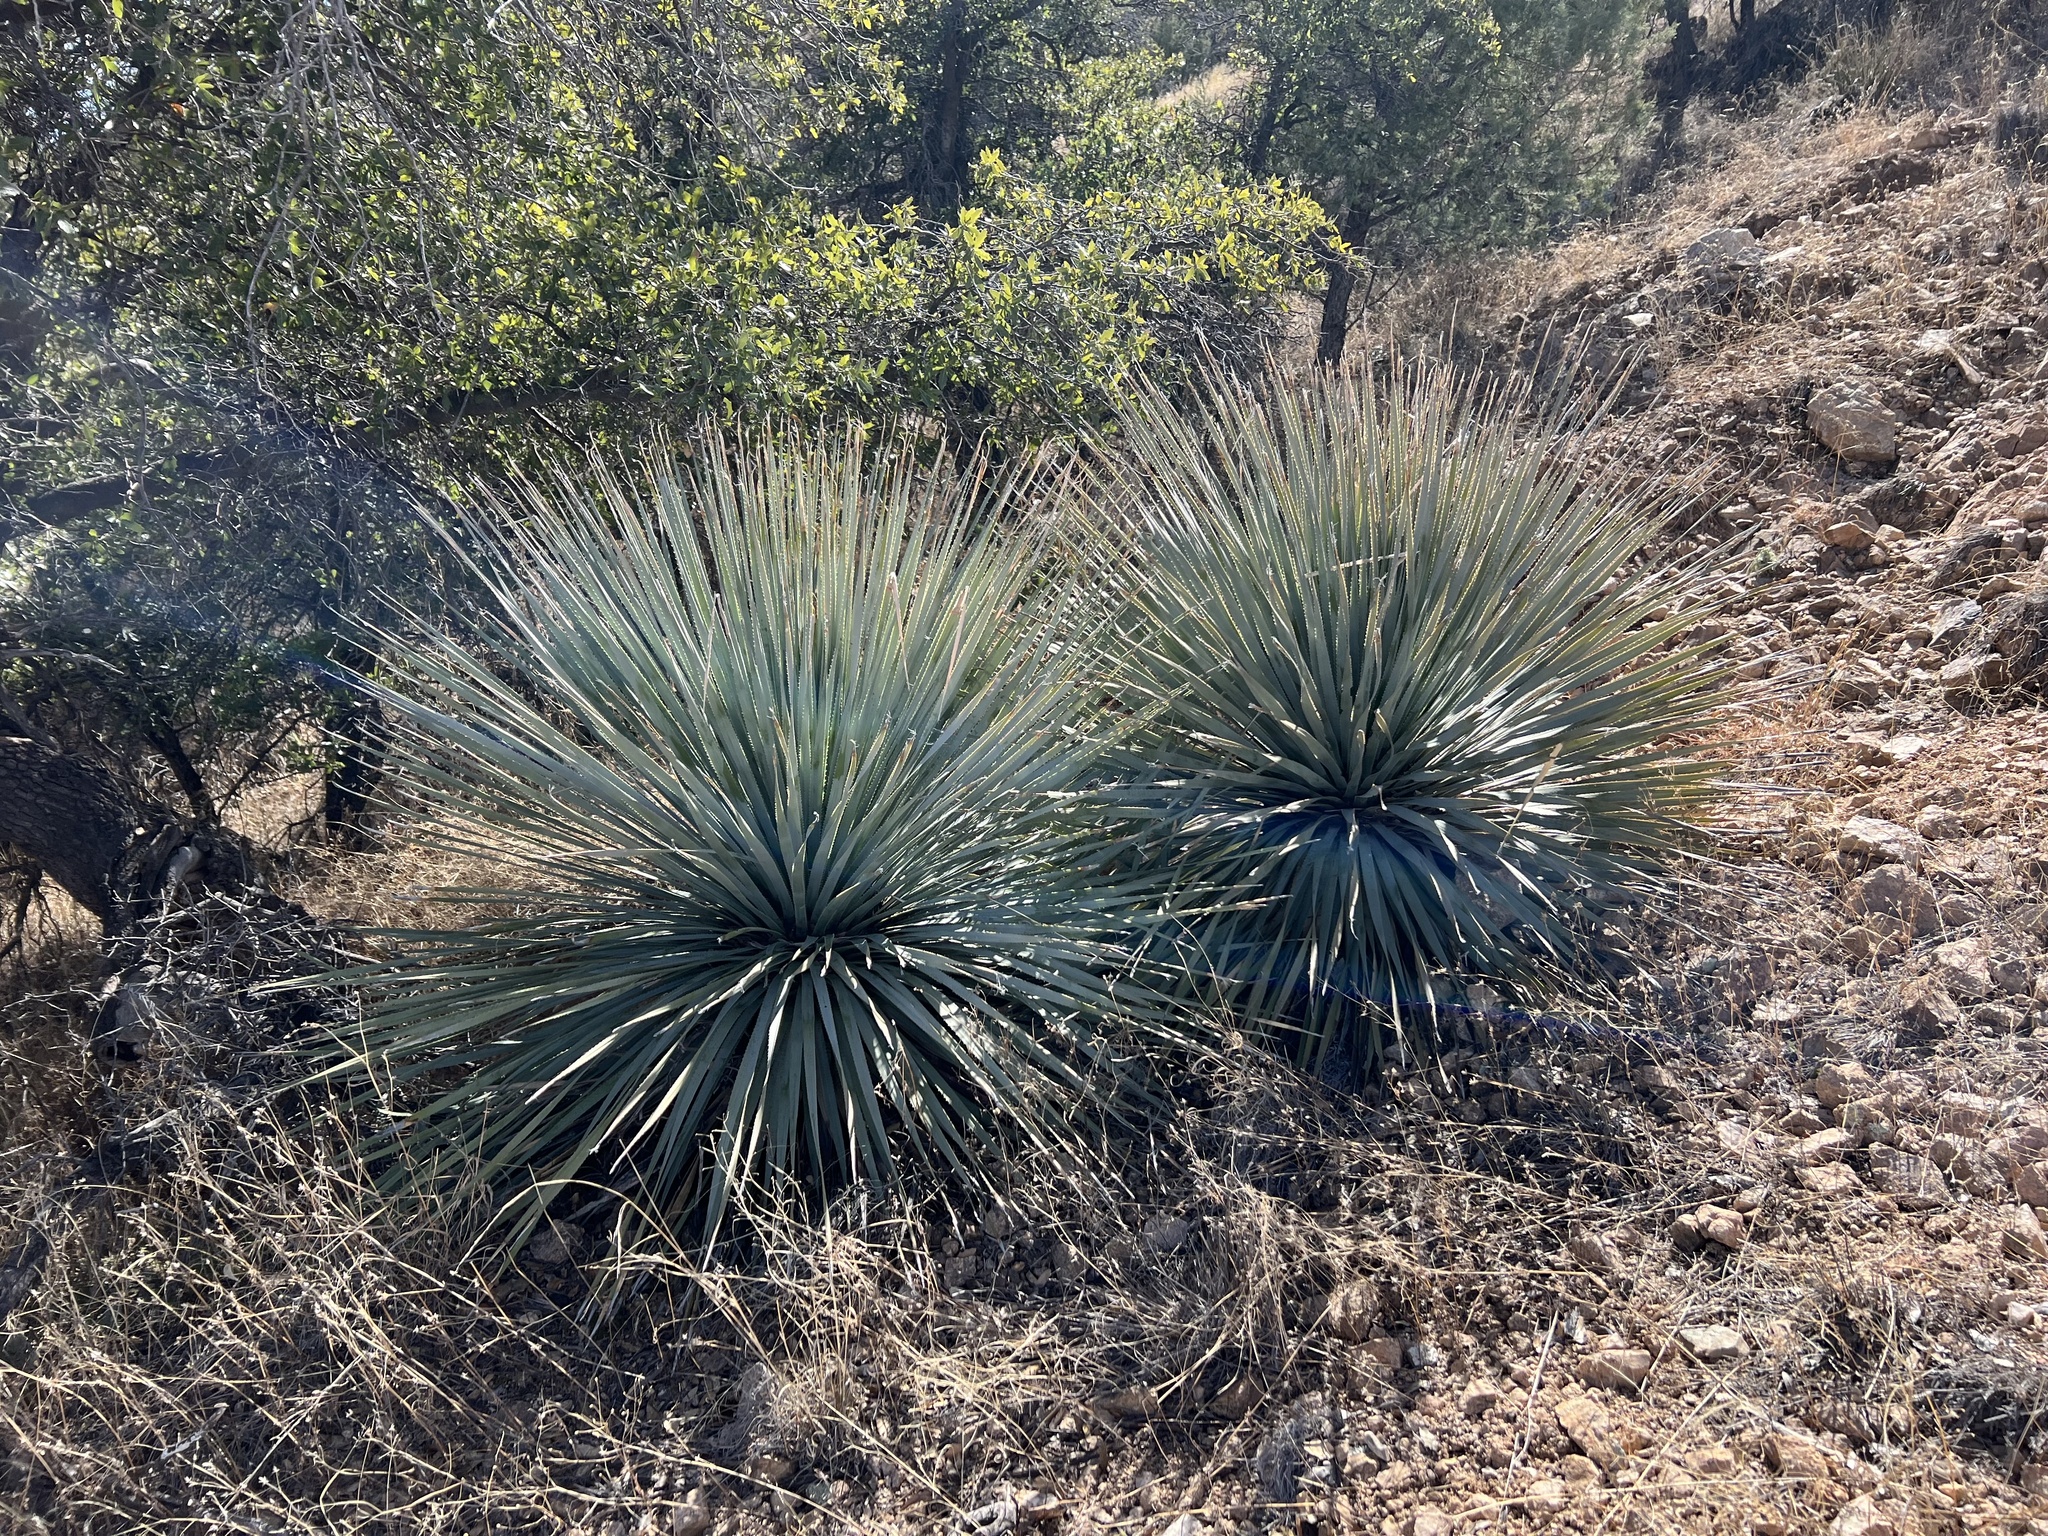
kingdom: Plantae
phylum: Tracheophyta
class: Liliopsida
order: Asparagales
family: Asparagaceae
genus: Dasylirion
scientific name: Dasylirion wheeleri
